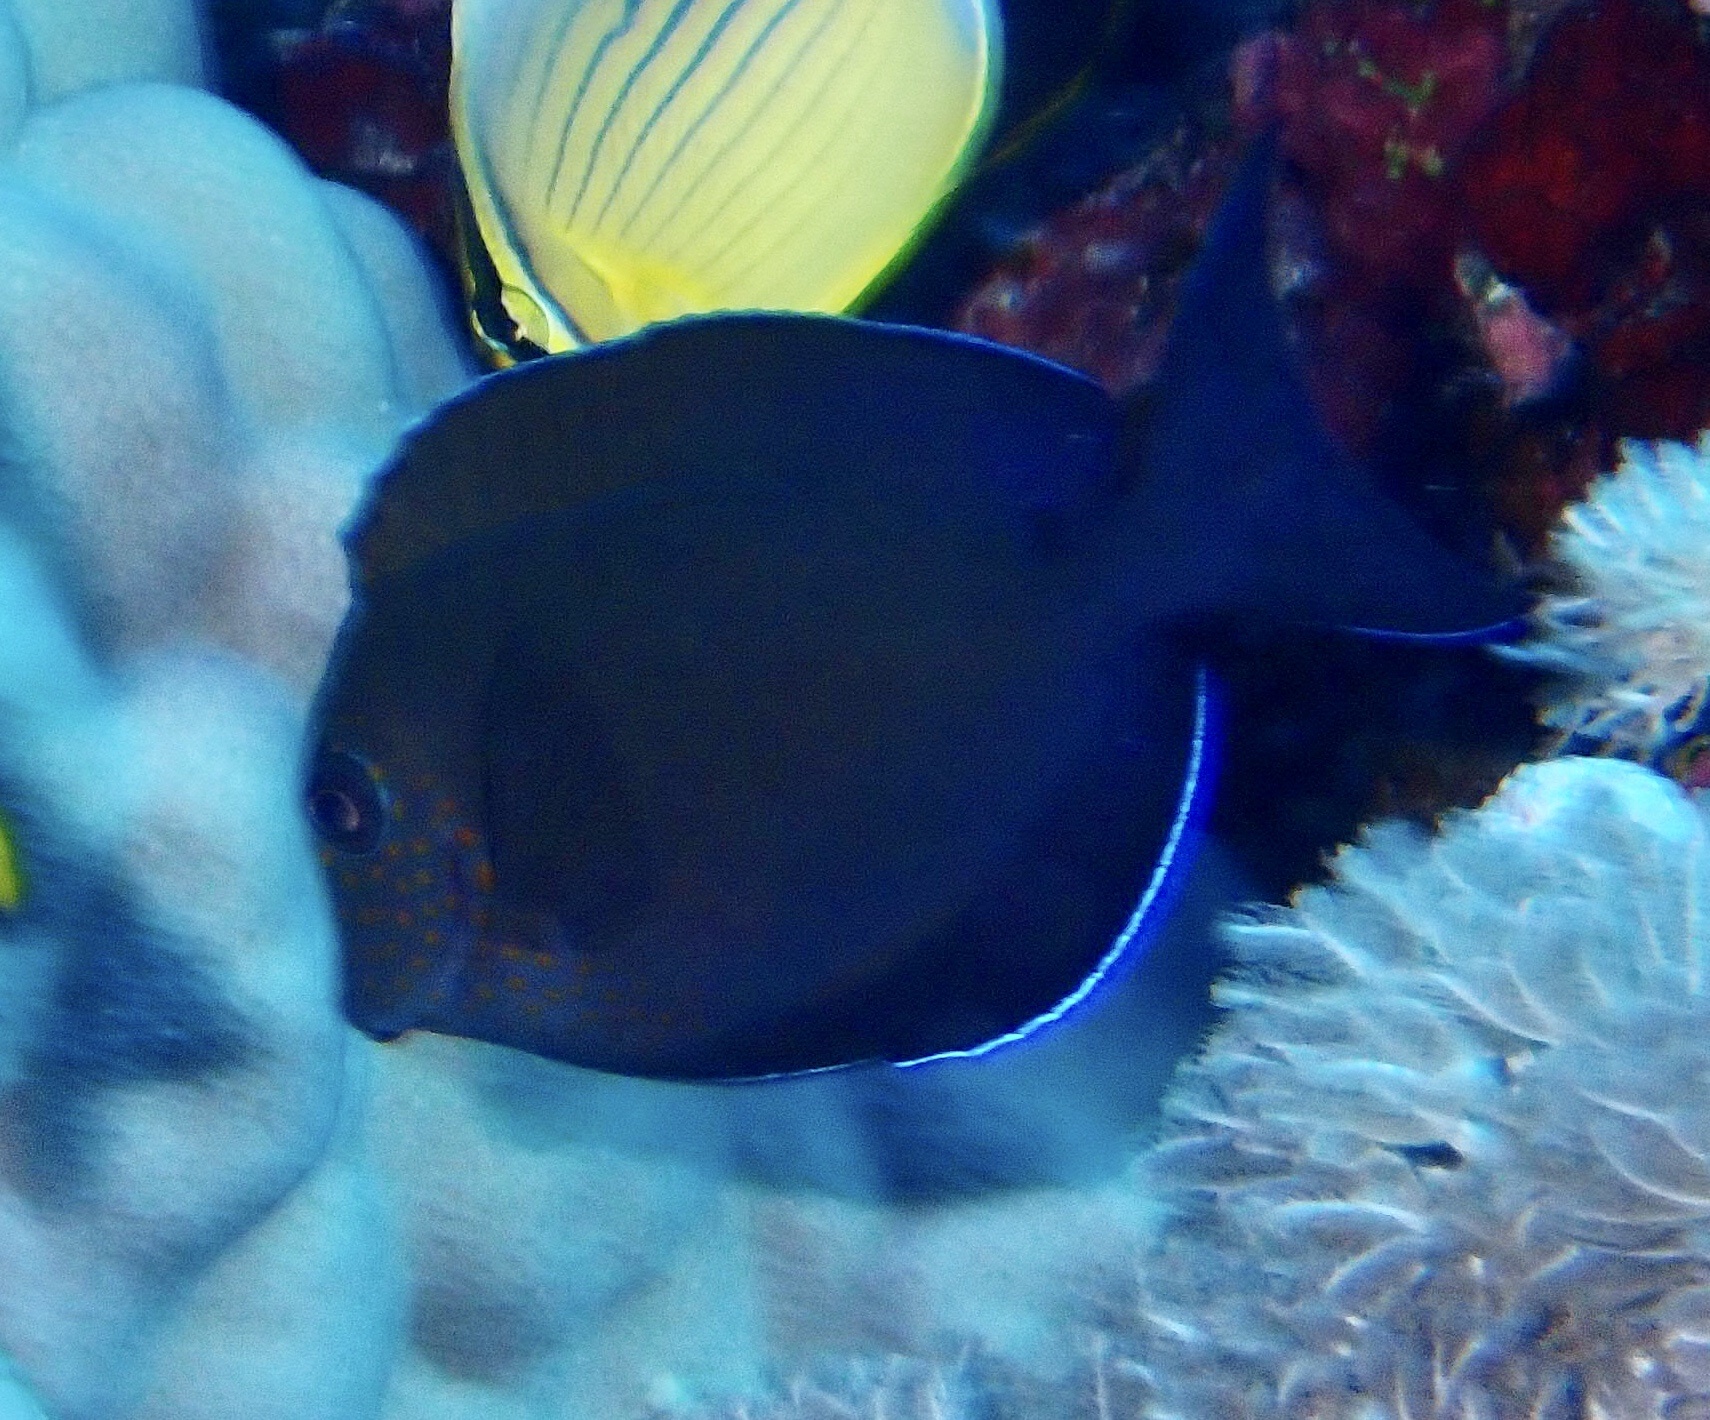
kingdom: Animalia
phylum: Chordata
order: Perciformes
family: Acanthuridae
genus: Acanthurus
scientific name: Acanthurus nigrofuscus
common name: Blackspot surgeonfish
